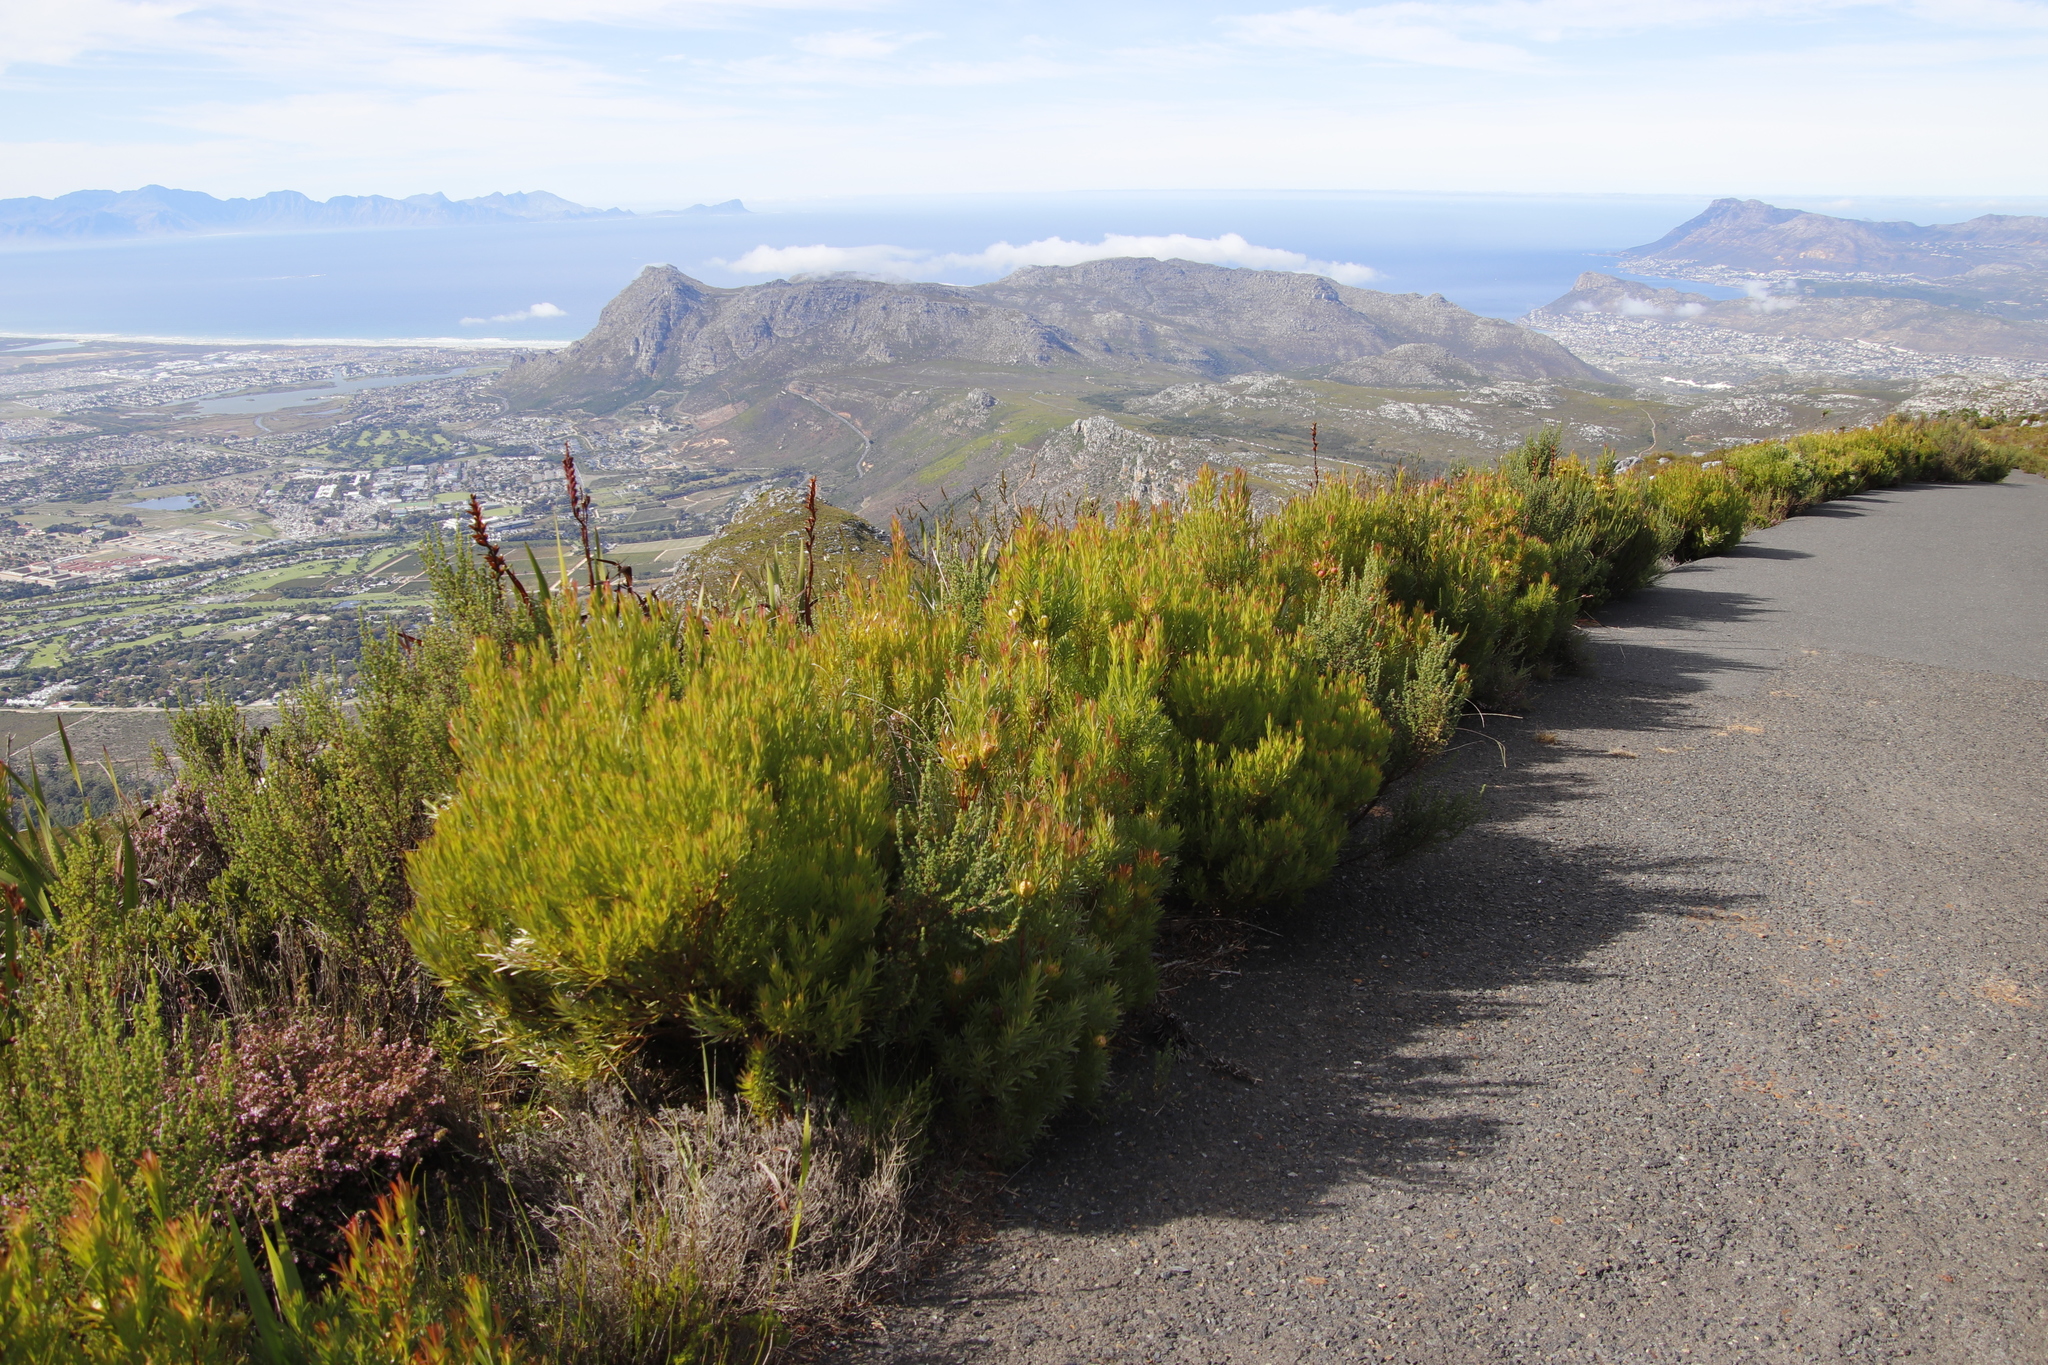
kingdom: Plantae
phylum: Tracheophyta
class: Magnoliopsida
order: Proteales
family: Proteaceae
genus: Leucadendron
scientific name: Leucadendron xanthoconus
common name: Sickle-leaf conebush
